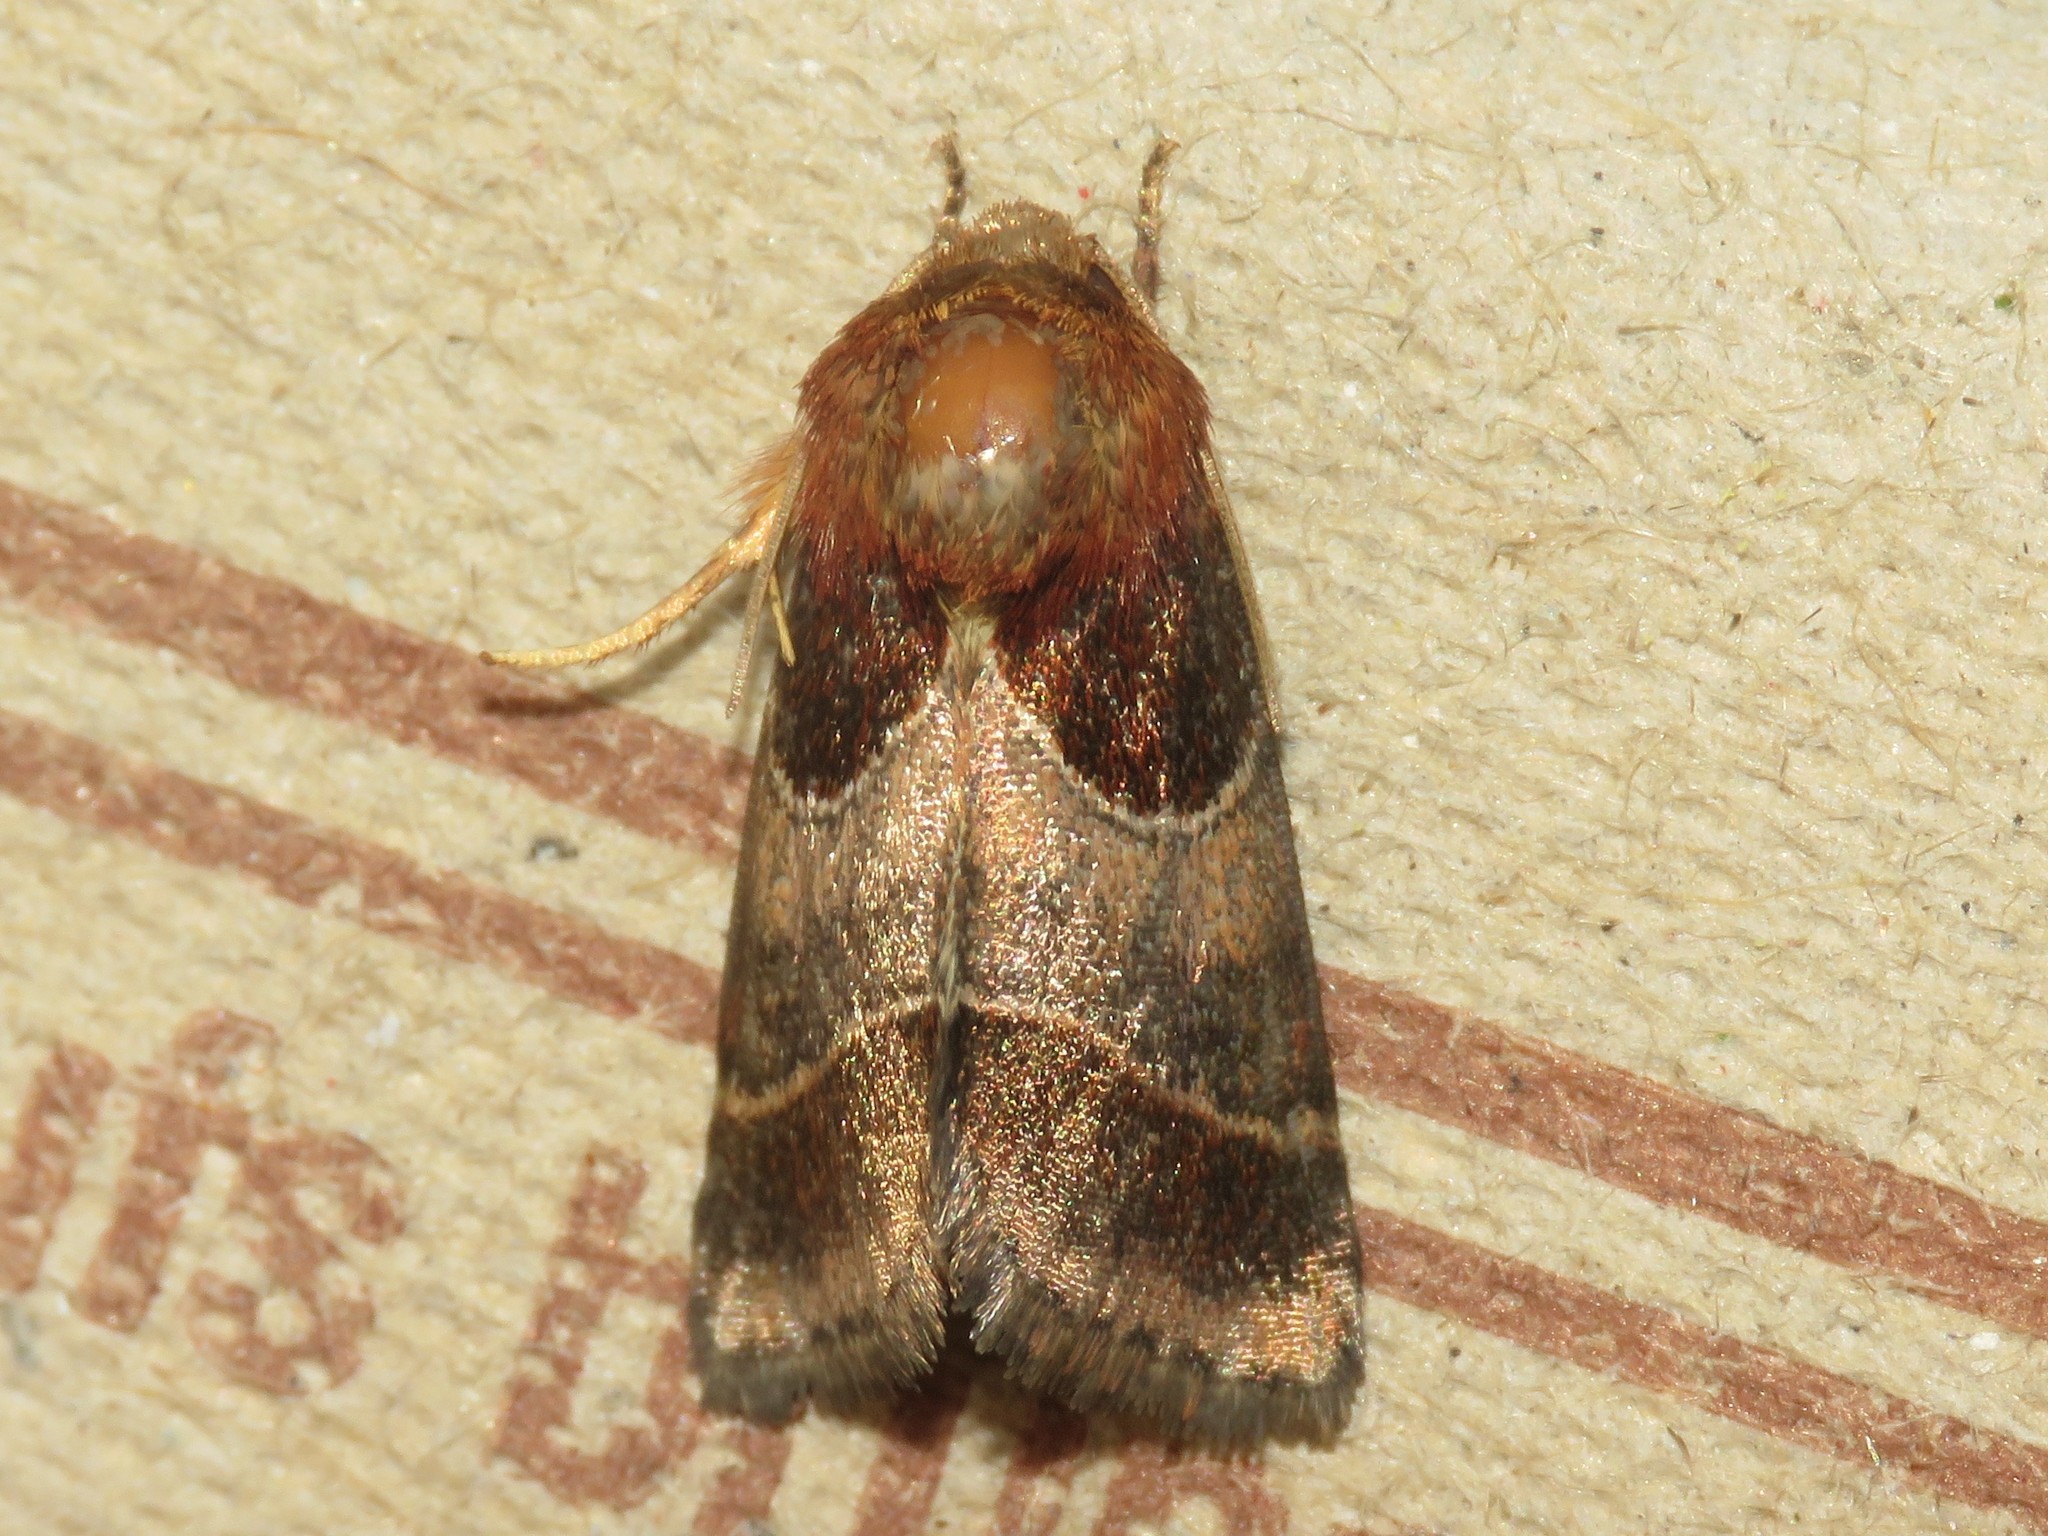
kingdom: Animalia
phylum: Arthropoda
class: Insecta
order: Lepidoptera
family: Noctuidae
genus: Schinia
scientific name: Schinia arcigera
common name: Arcigera flower moth
